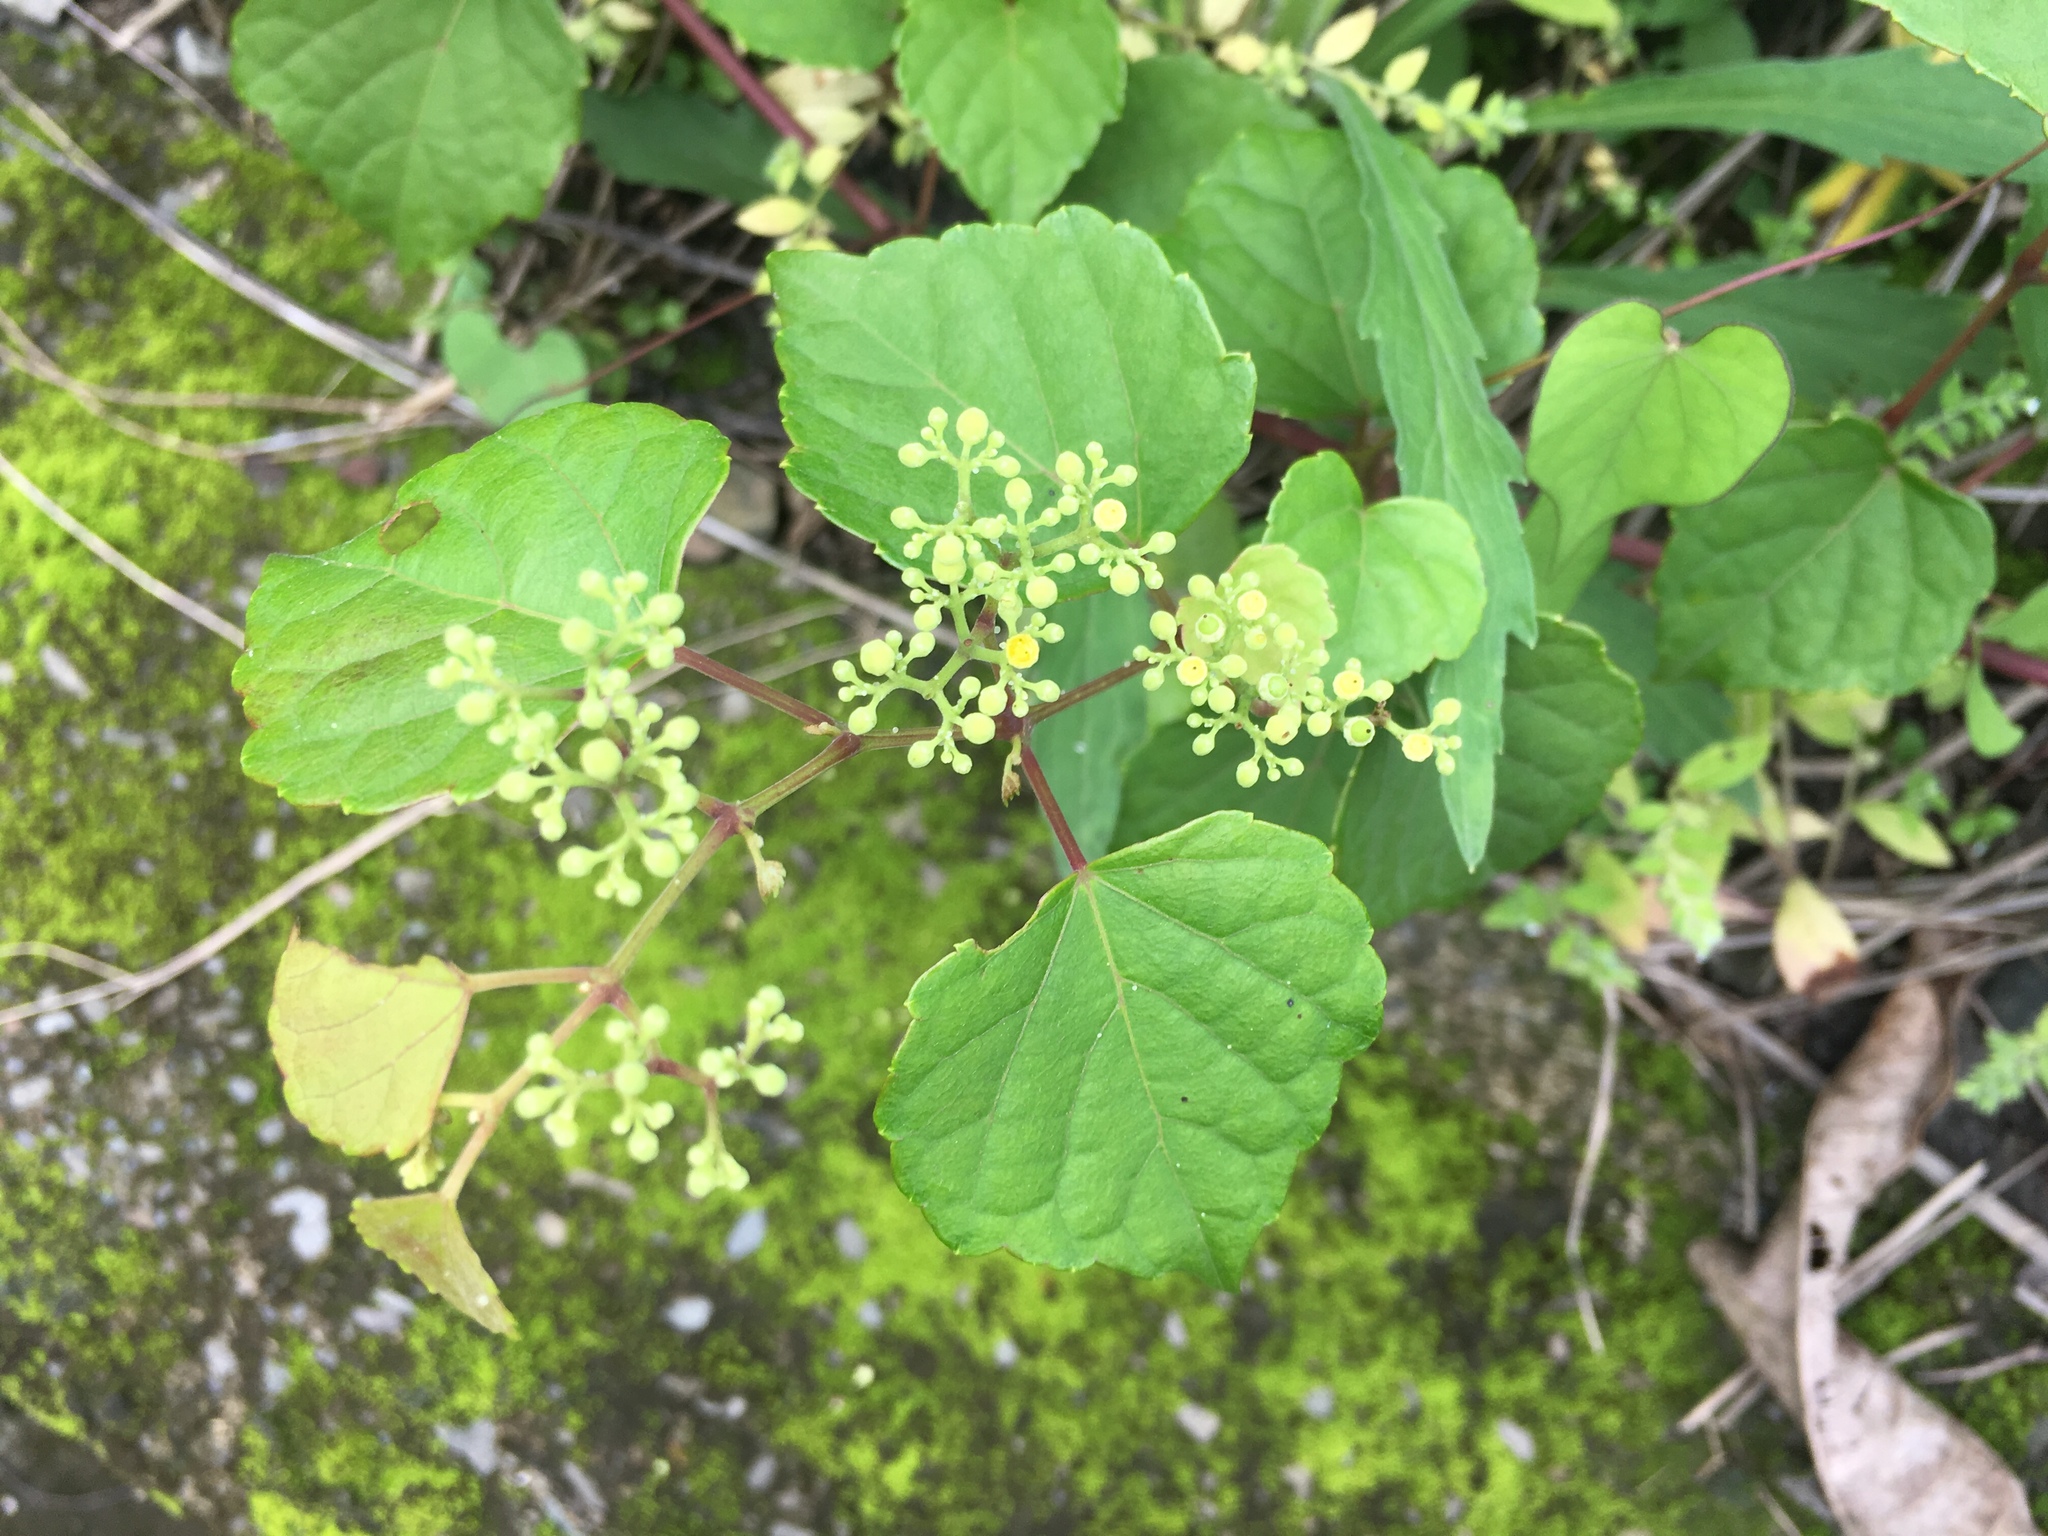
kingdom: Plantae
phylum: Tracheophyta
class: Magnoliopsida
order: Vitales
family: Vitaceae
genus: Ampelopsis
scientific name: Ampelopsis glandulosa
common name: Amur peppervine
